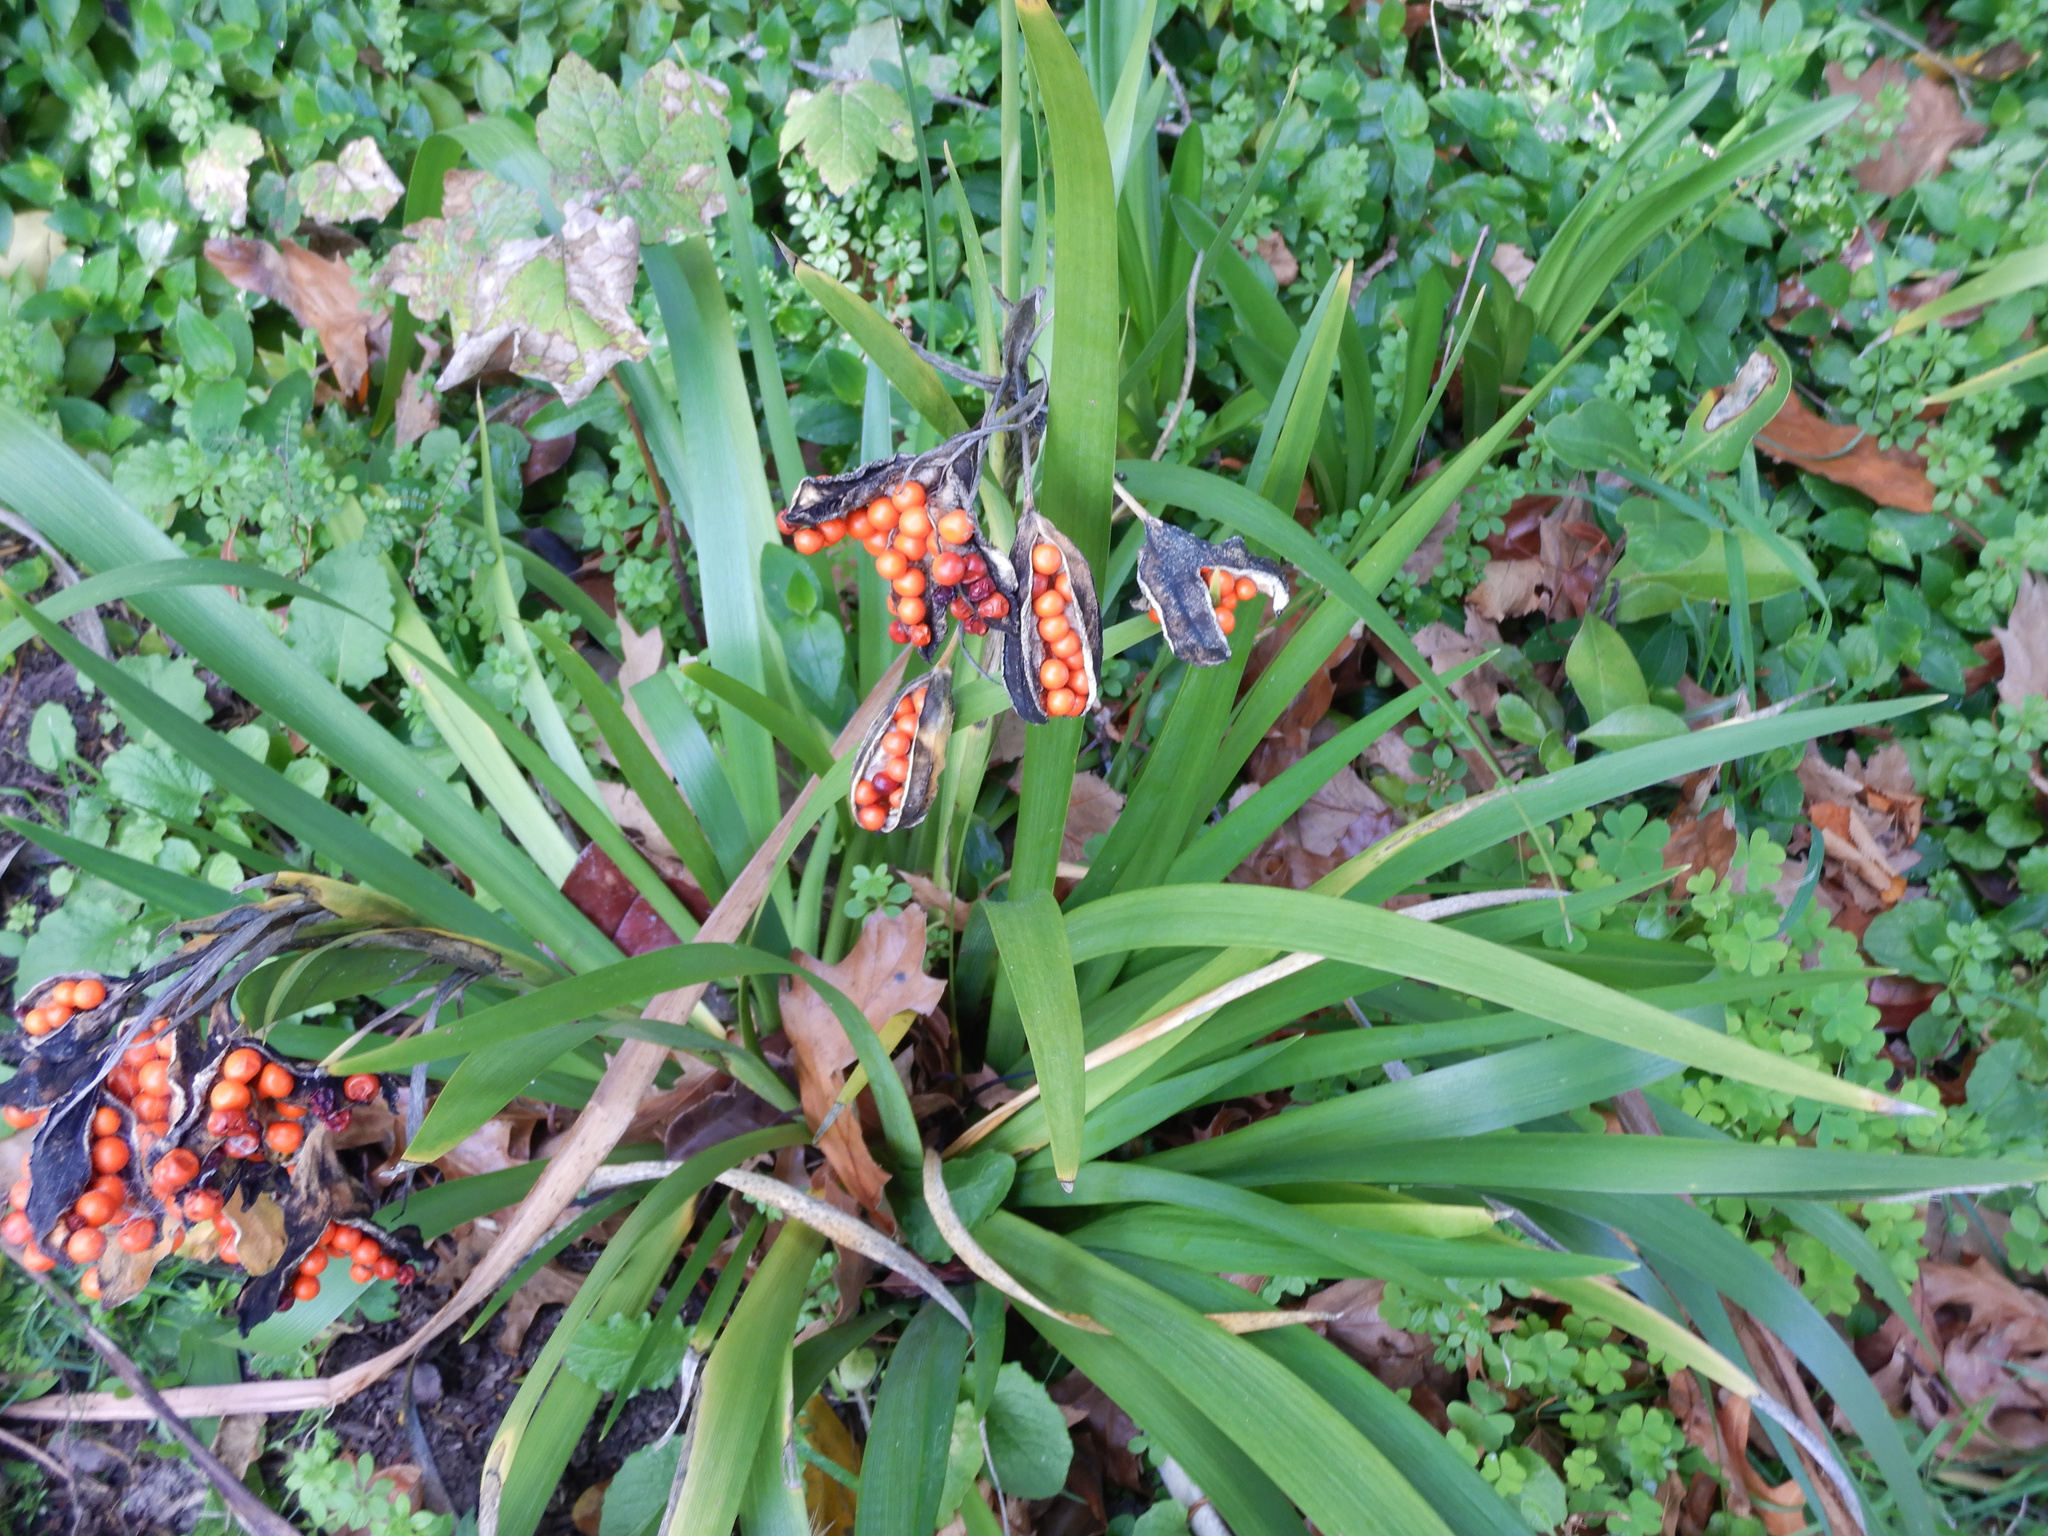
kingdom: Plantae
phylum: Tracheophyta
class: Liliopsida
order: Asparagales
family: Iridaceae
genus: Iris
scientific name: Iris foetidissima
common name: Stinking iris
